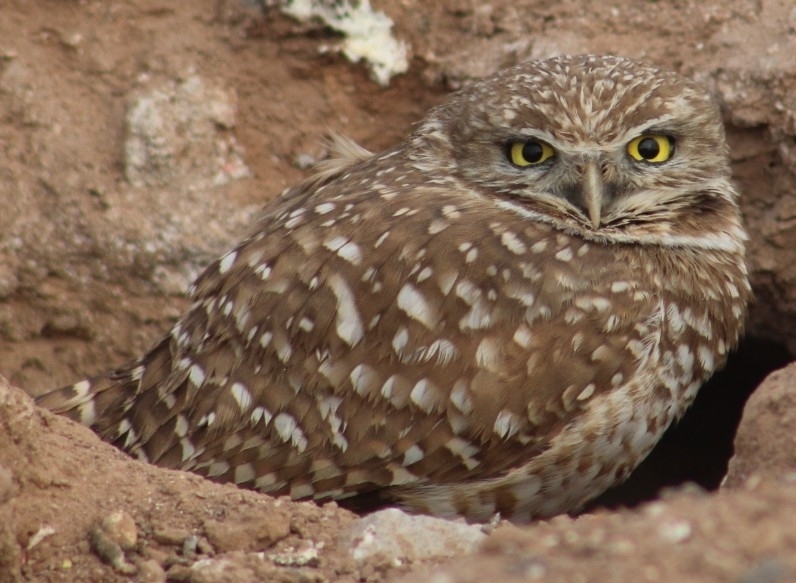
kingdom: Animalia
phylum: Chordata
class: Aves
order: Strigiformes
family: Strigidae
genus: Athene
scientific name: Athene cunicularia
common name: Burrowing owl
